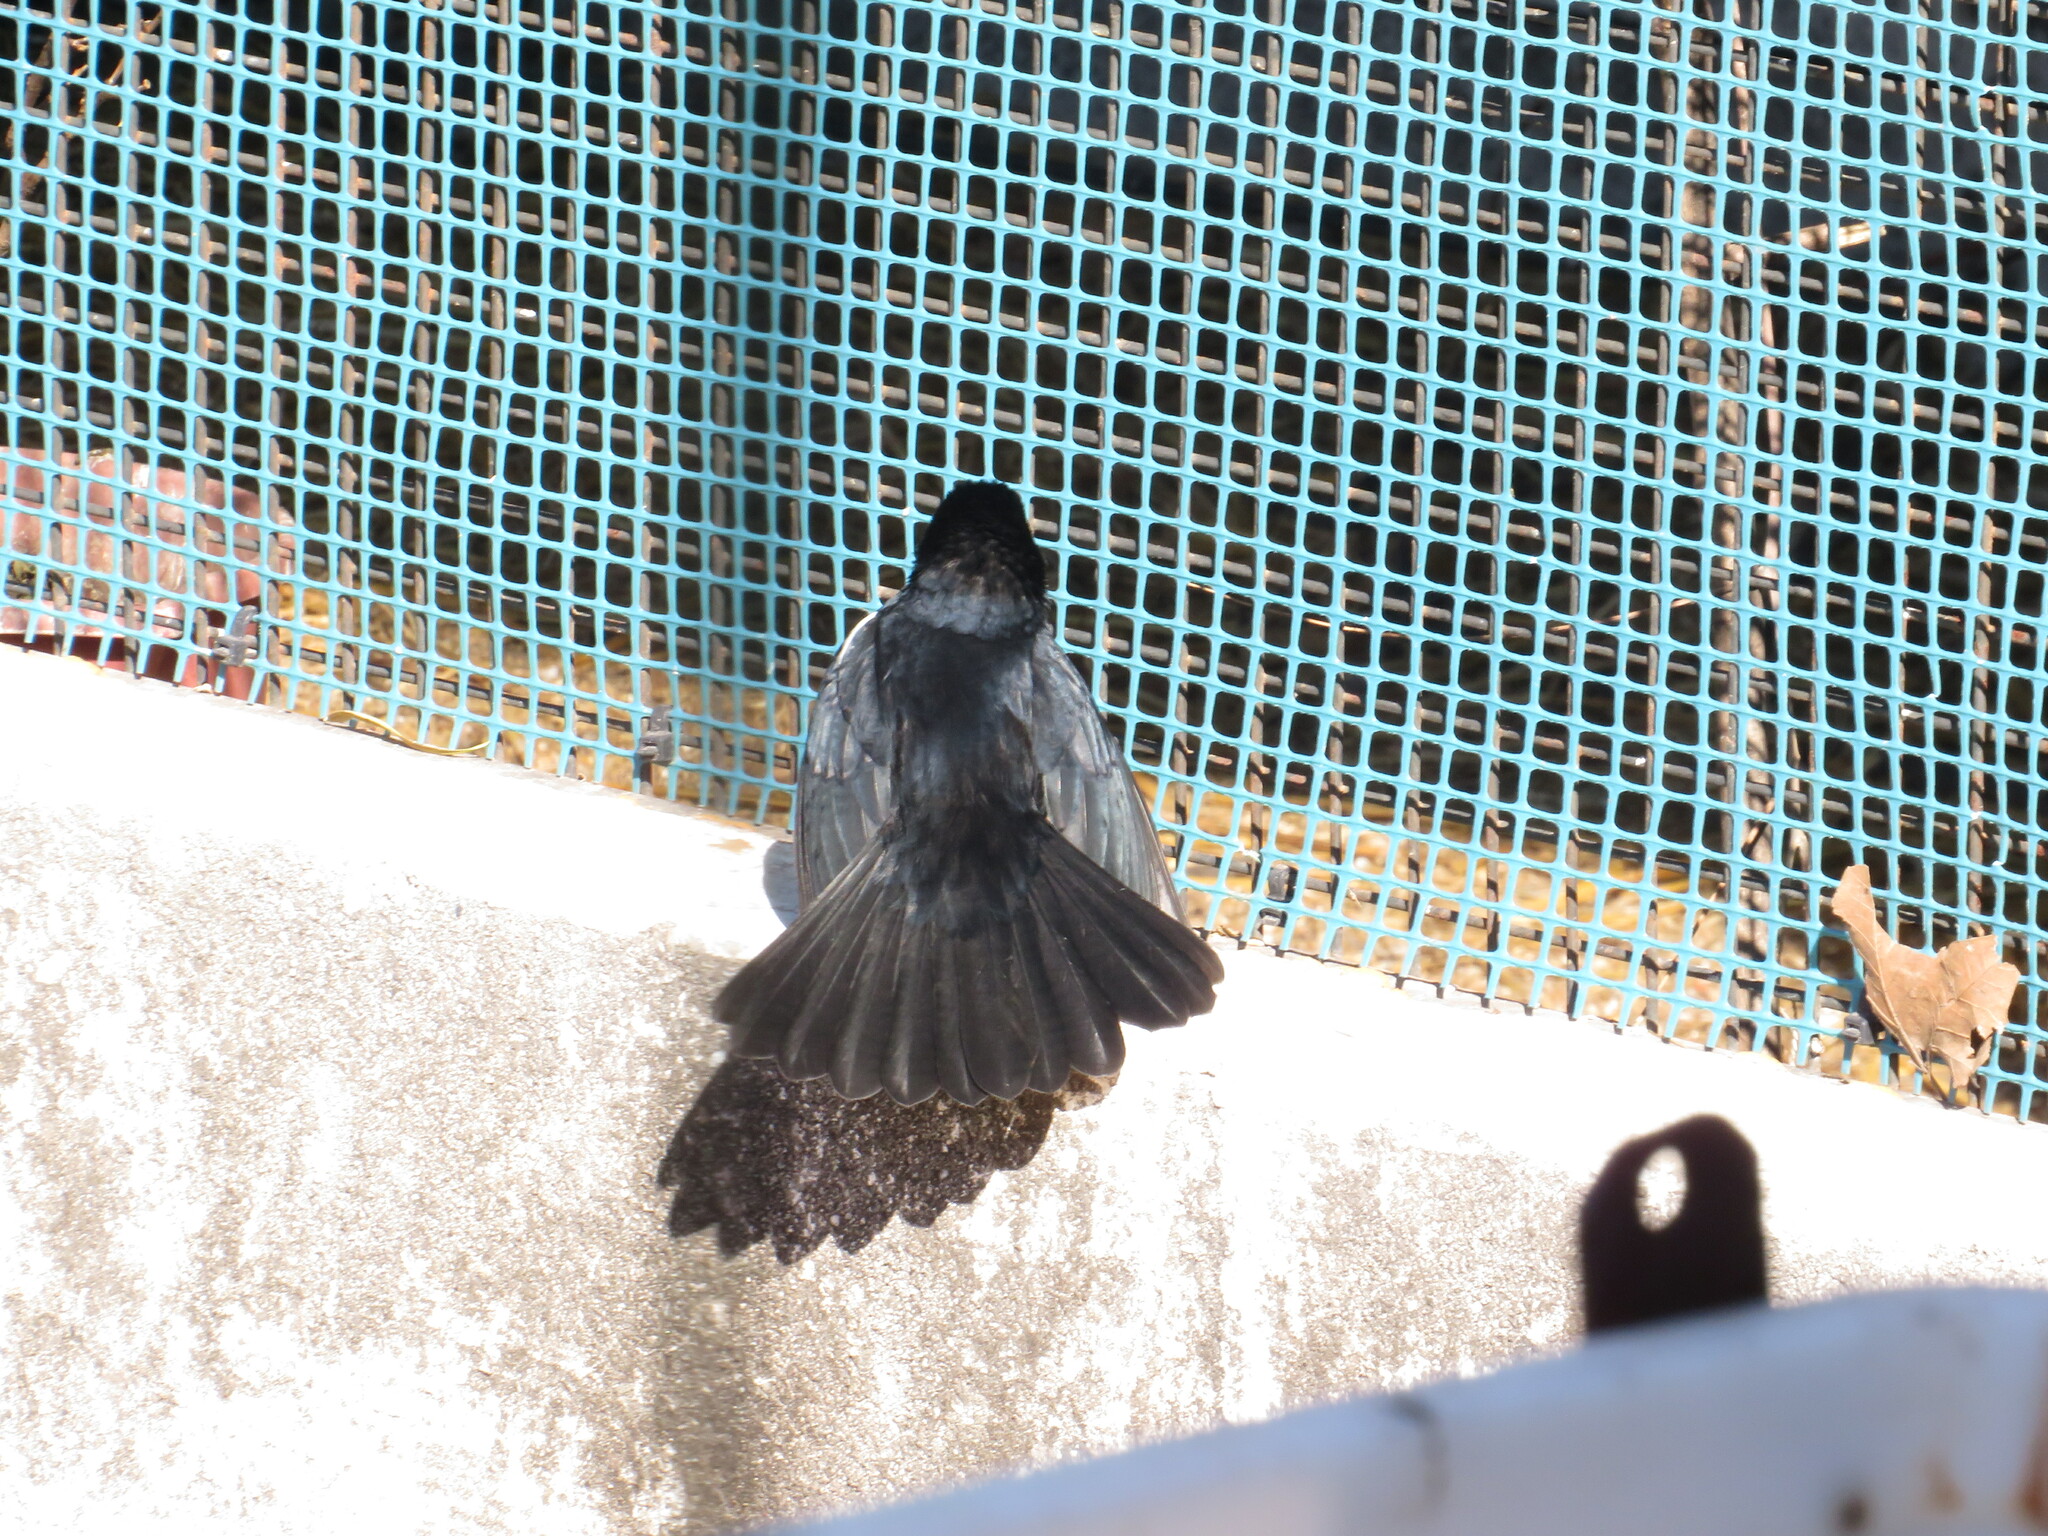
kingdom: Animalia
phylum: Chordata
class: Aves
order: Passeriformes
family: Thraupidae
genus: Tachyphonus
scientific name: Tachyphonus rufus
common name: White-lined tanager
